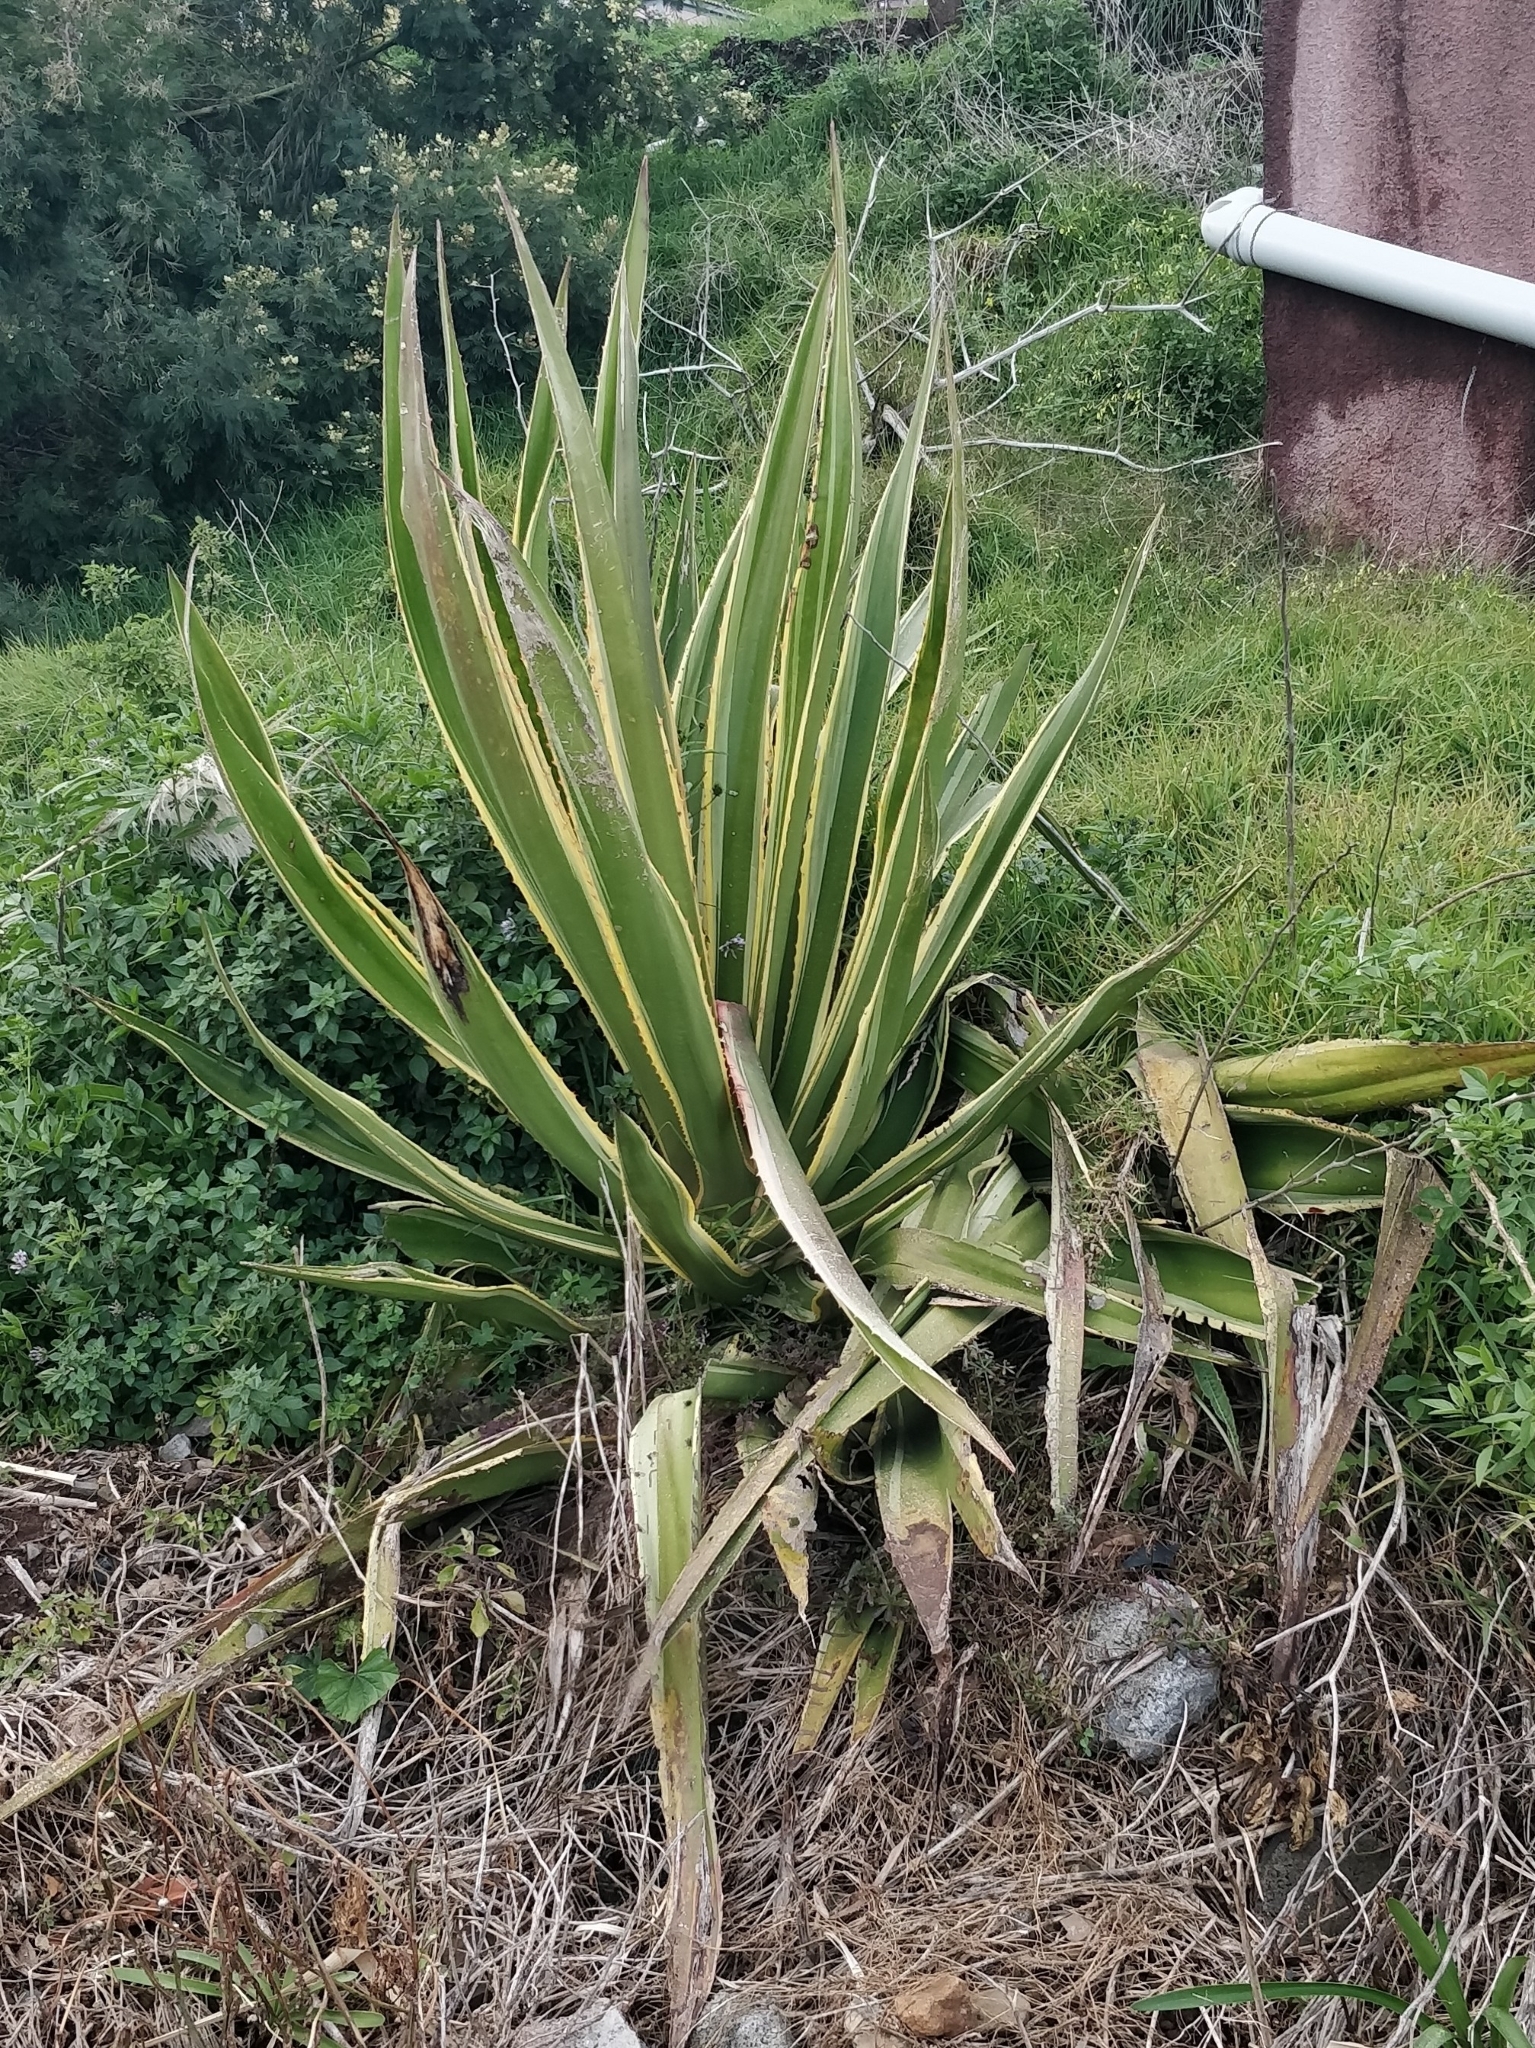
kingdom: Plantae
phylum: Tracheophyta
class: Liliopsida
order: Asparagales
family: Asparagaceae
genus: Agave
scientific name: Agave americana
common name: Centuryplant
